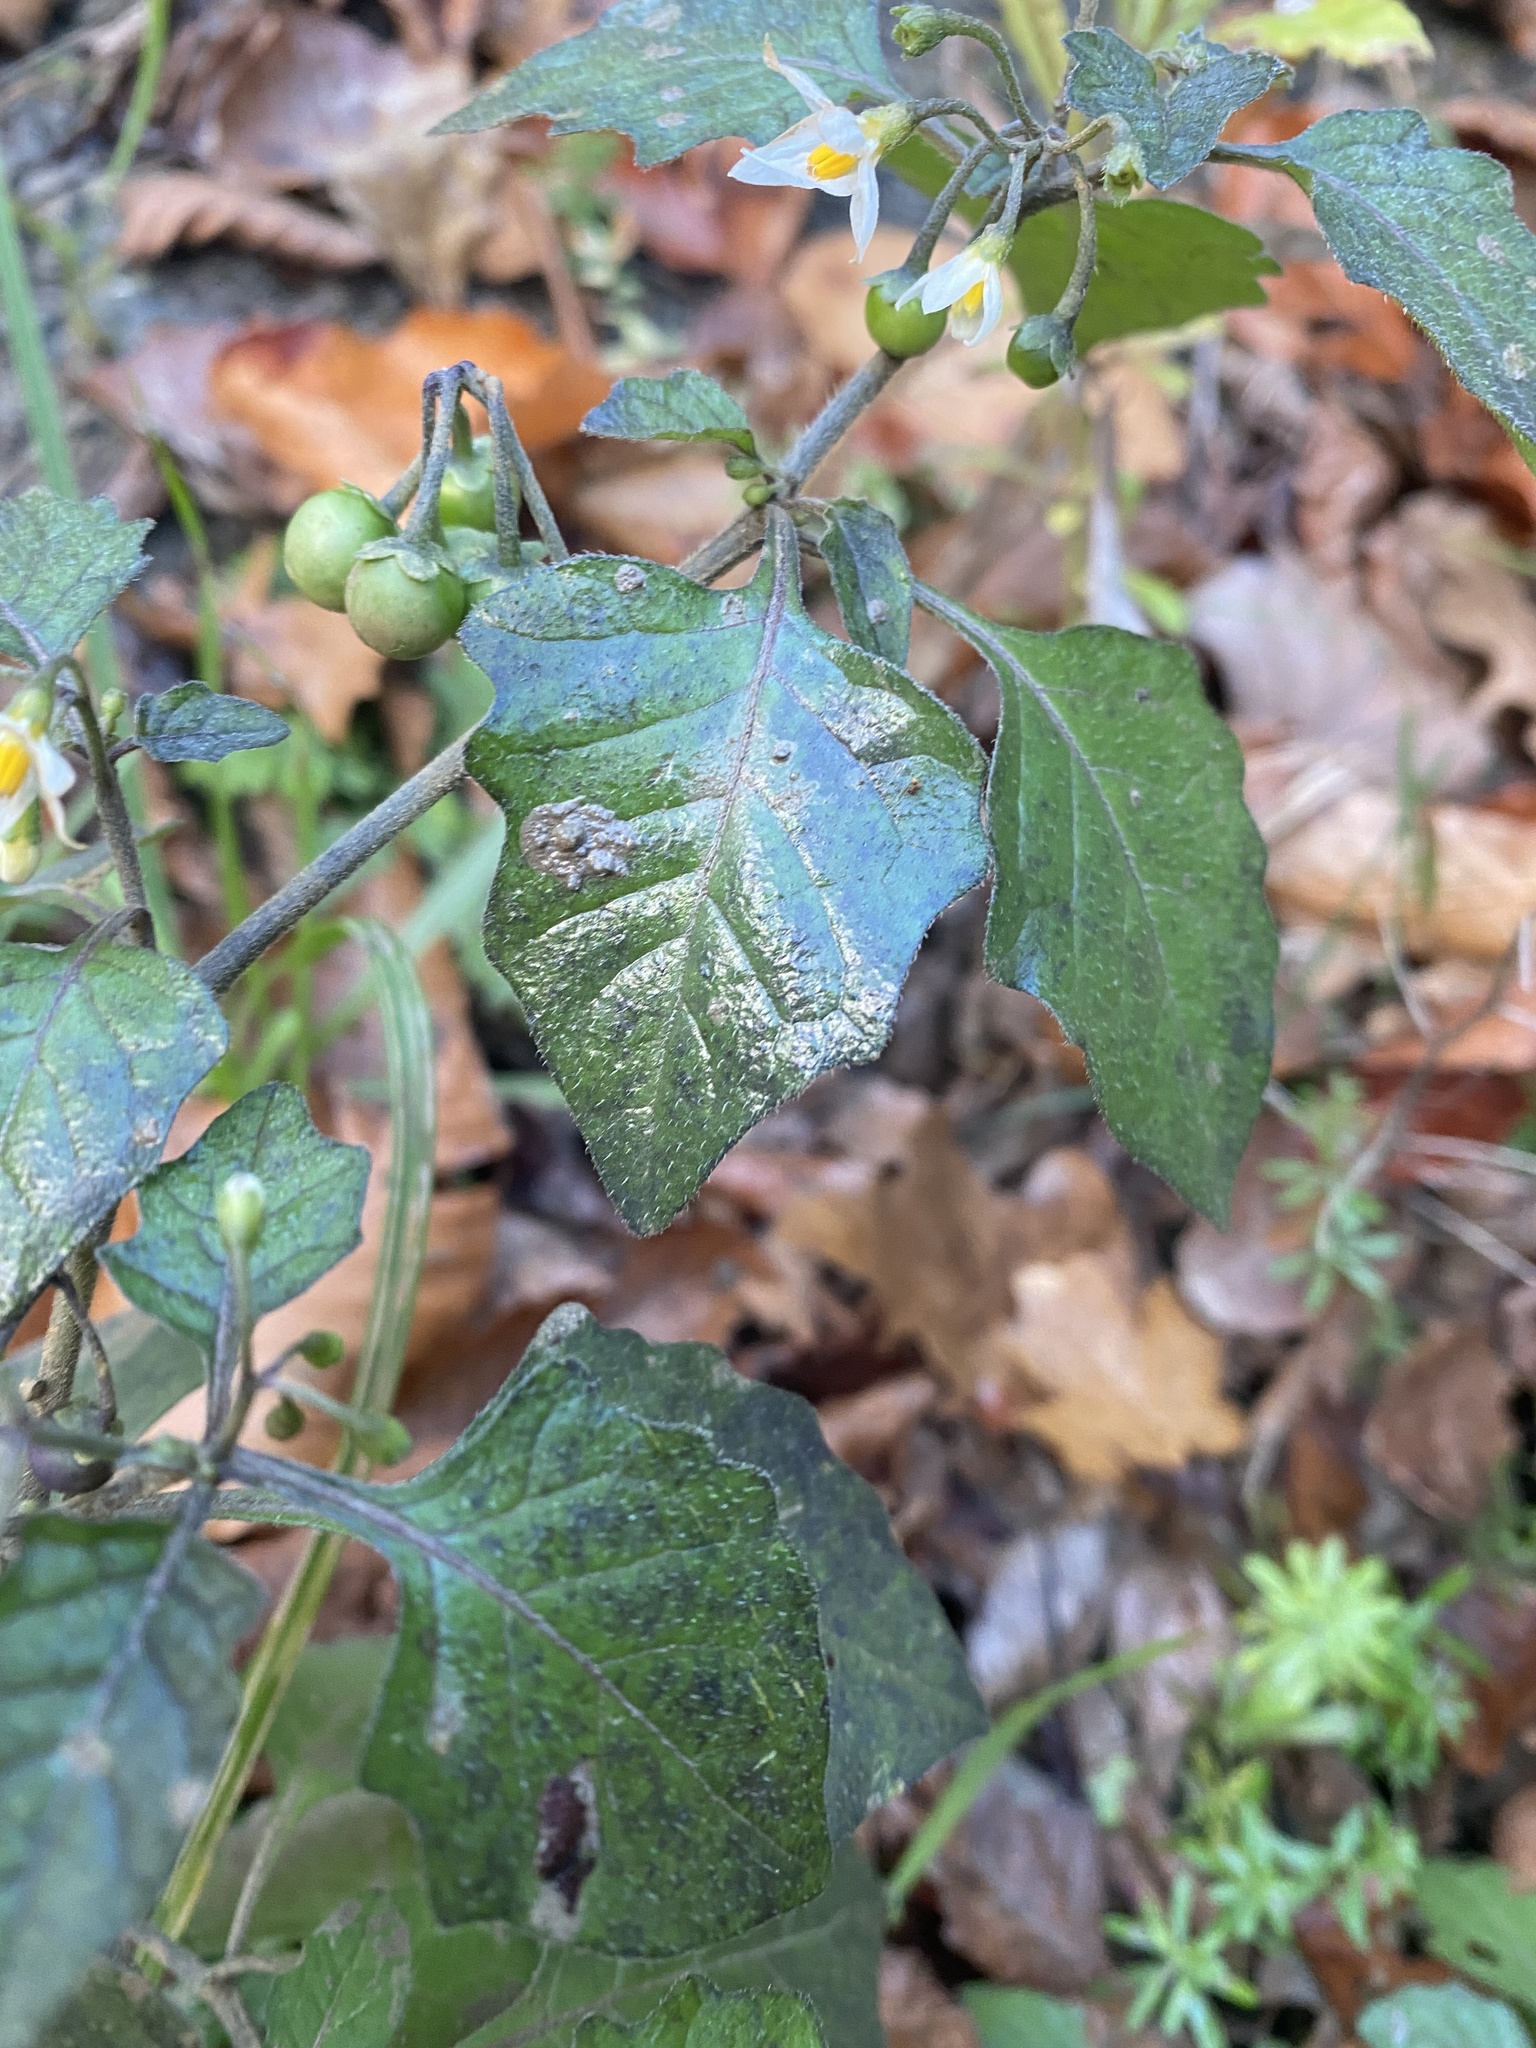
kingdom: Plantae
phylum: Tracheophyta
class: Magnoliopsida
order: Solanales
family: Solanaceae
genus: Solanum
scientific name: Solanum nigrum
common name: Black nightshade
